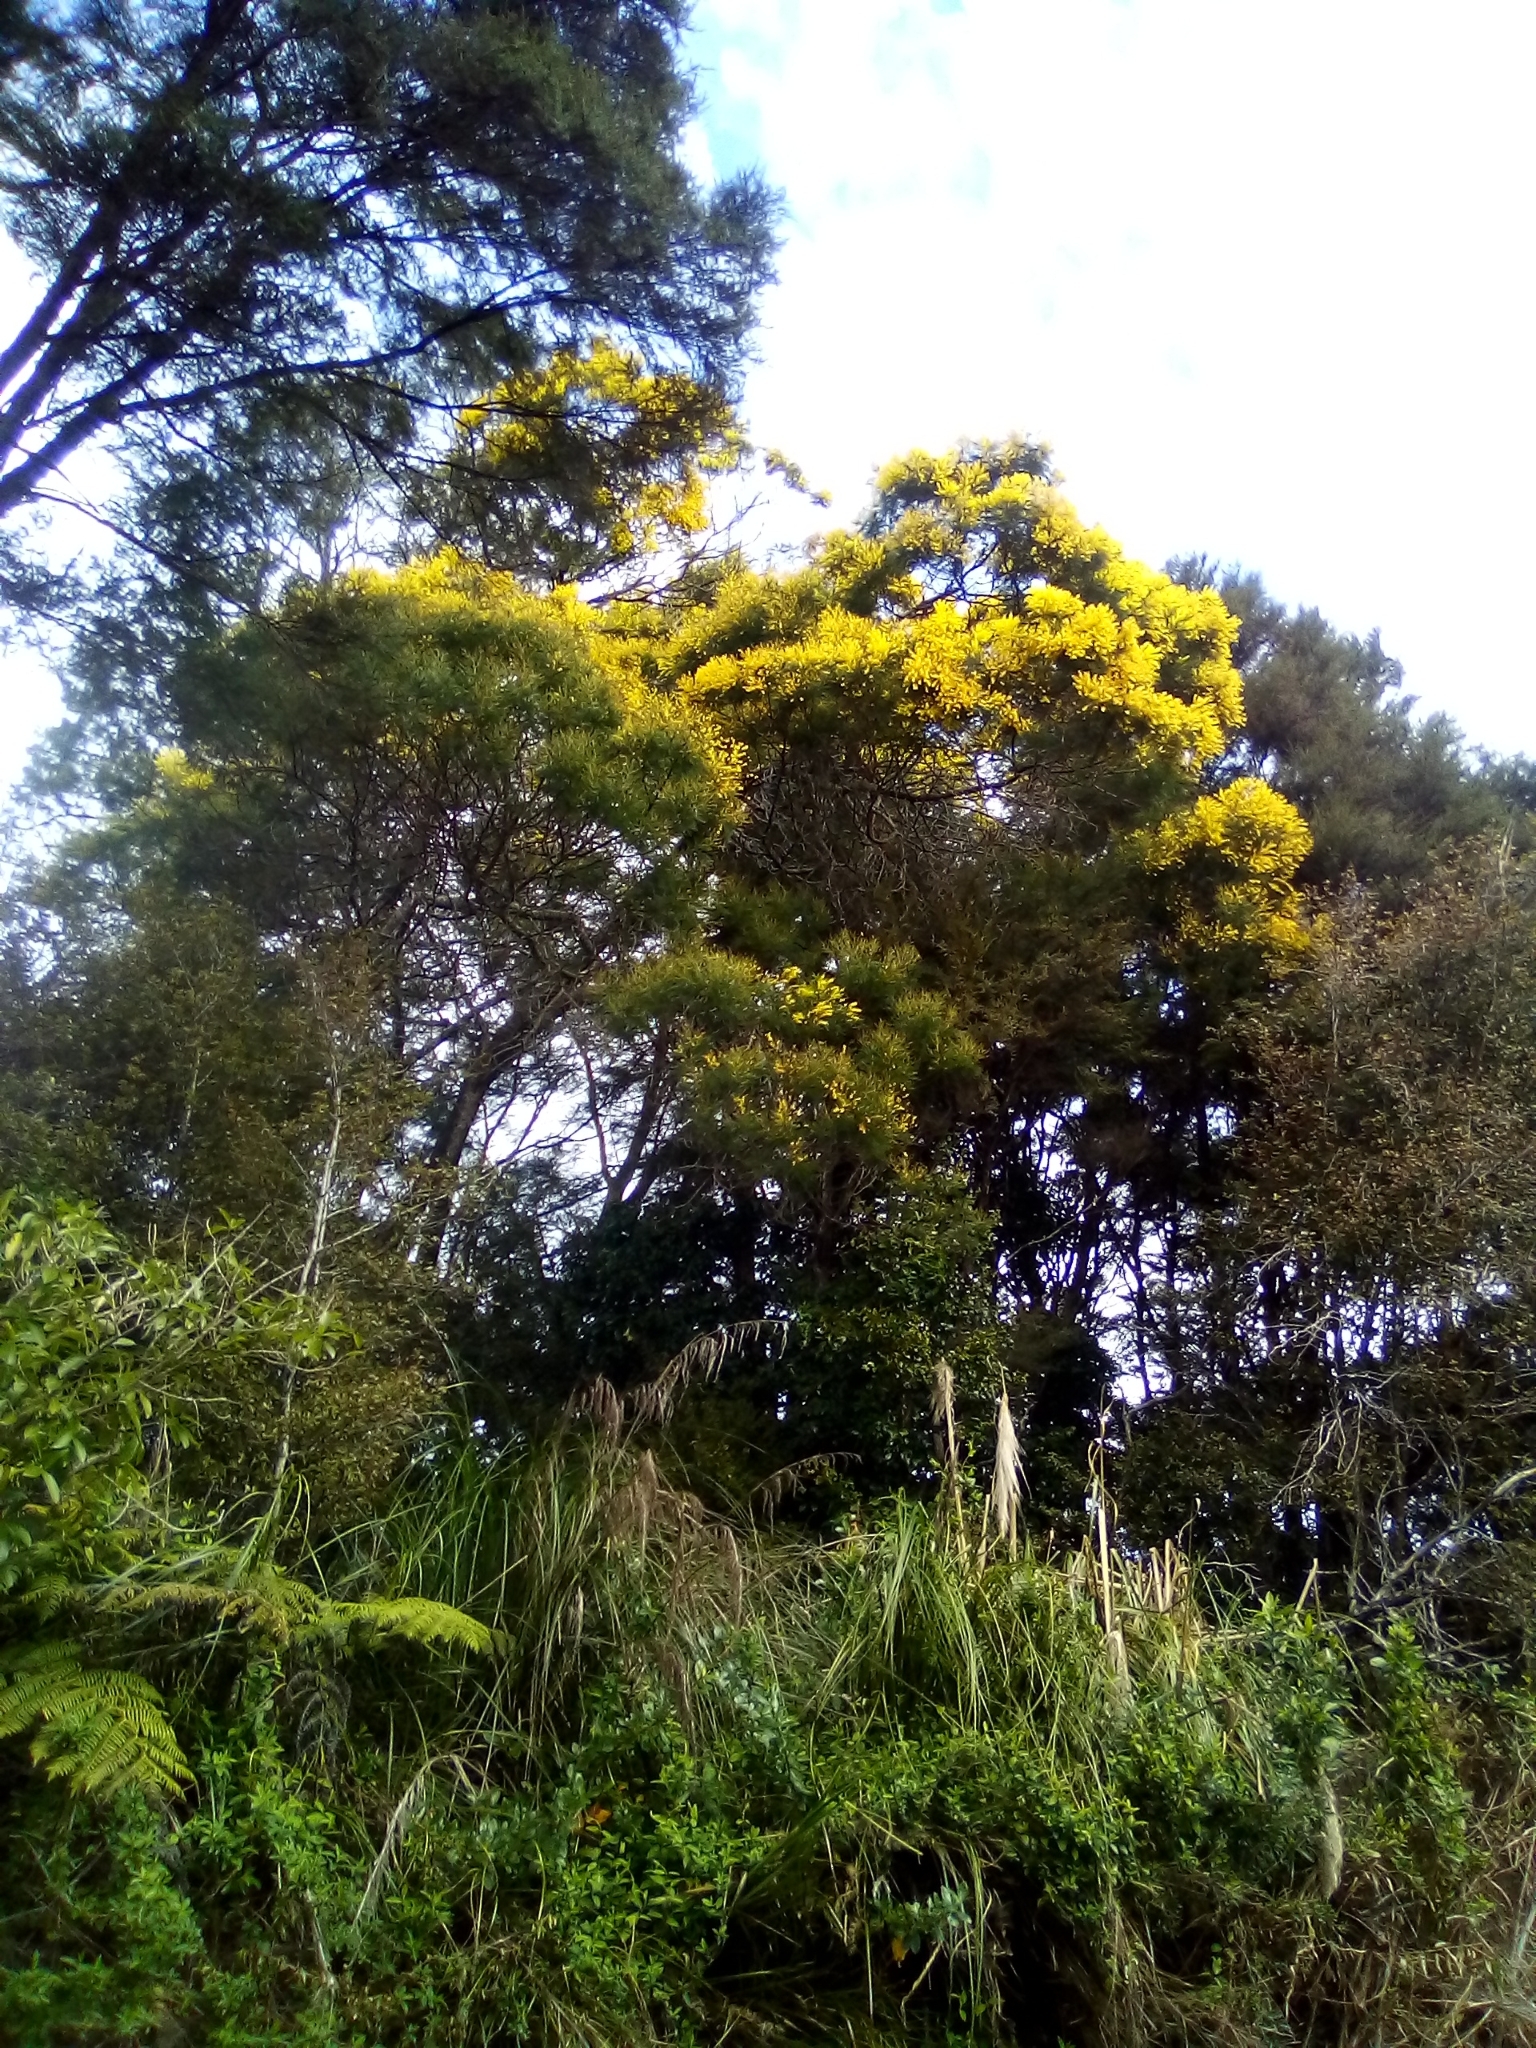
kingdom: Plantae
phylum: Tracheophyta
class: Magnoliopsida
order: Fabales
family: Fabaceae
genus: Acacia
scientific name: Acacia decurrens
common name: Green wattle
